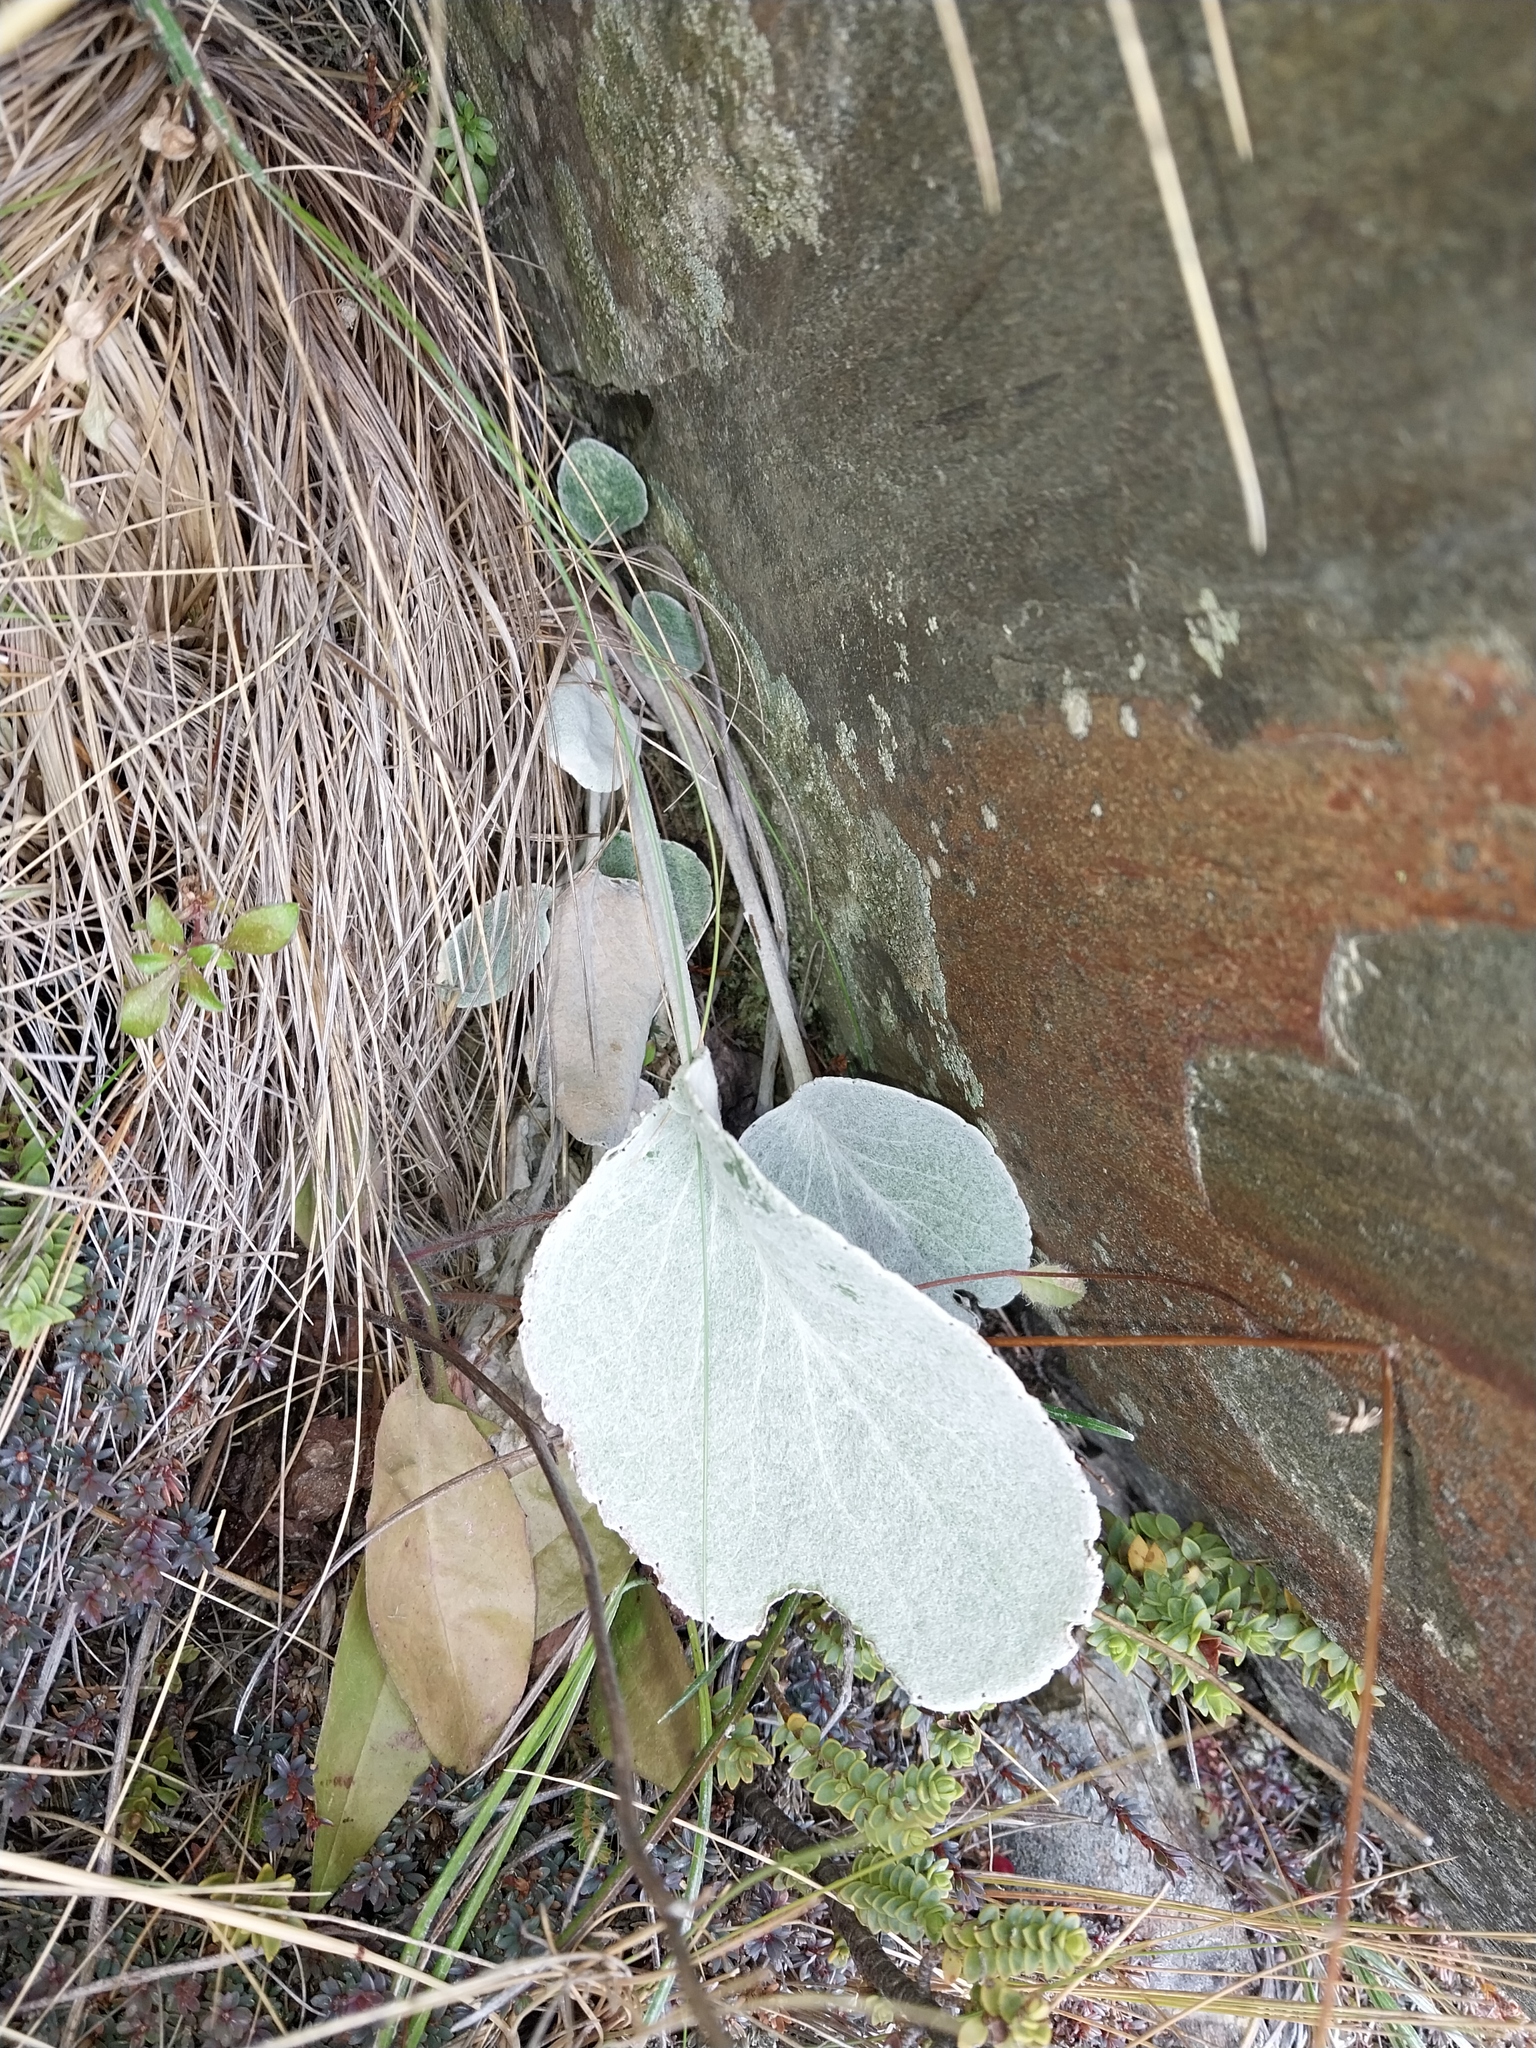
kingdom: Plantae
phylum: Tracheophyta
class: Magnoliopsida
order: Asterales
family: Asteraceae
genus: Brachyglottis
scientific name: Brachyglottis haastii
